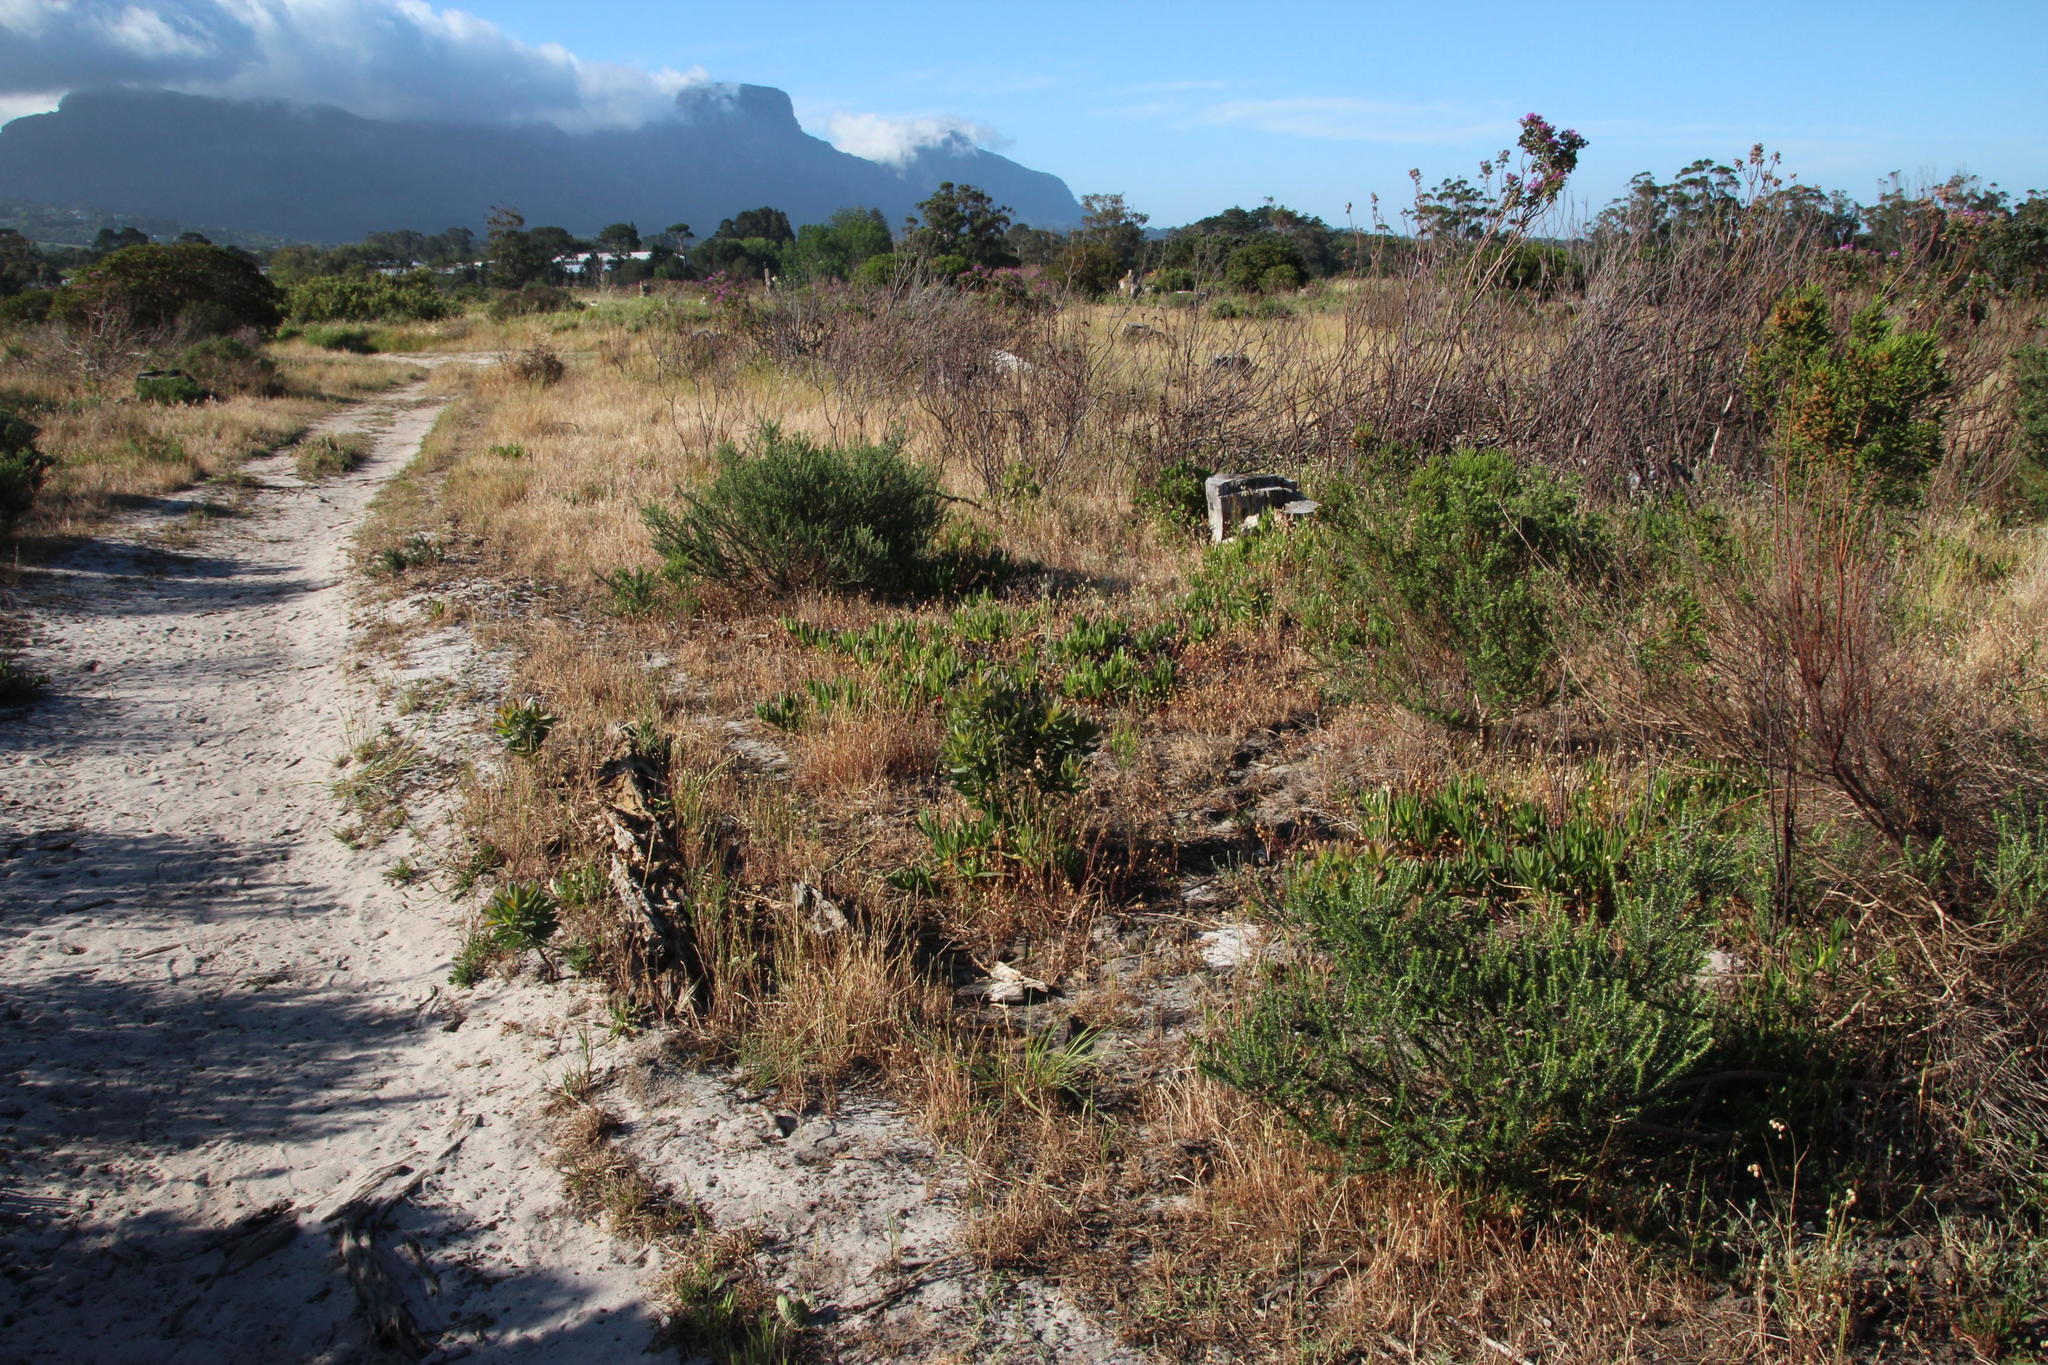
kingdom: Plantae
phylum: Tracheophyta
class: Magnoliopsida
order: Proteales
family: Proteaceae
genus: Leucadendron
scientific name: Leucadendron laureolum
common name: Golden sunshinebush
